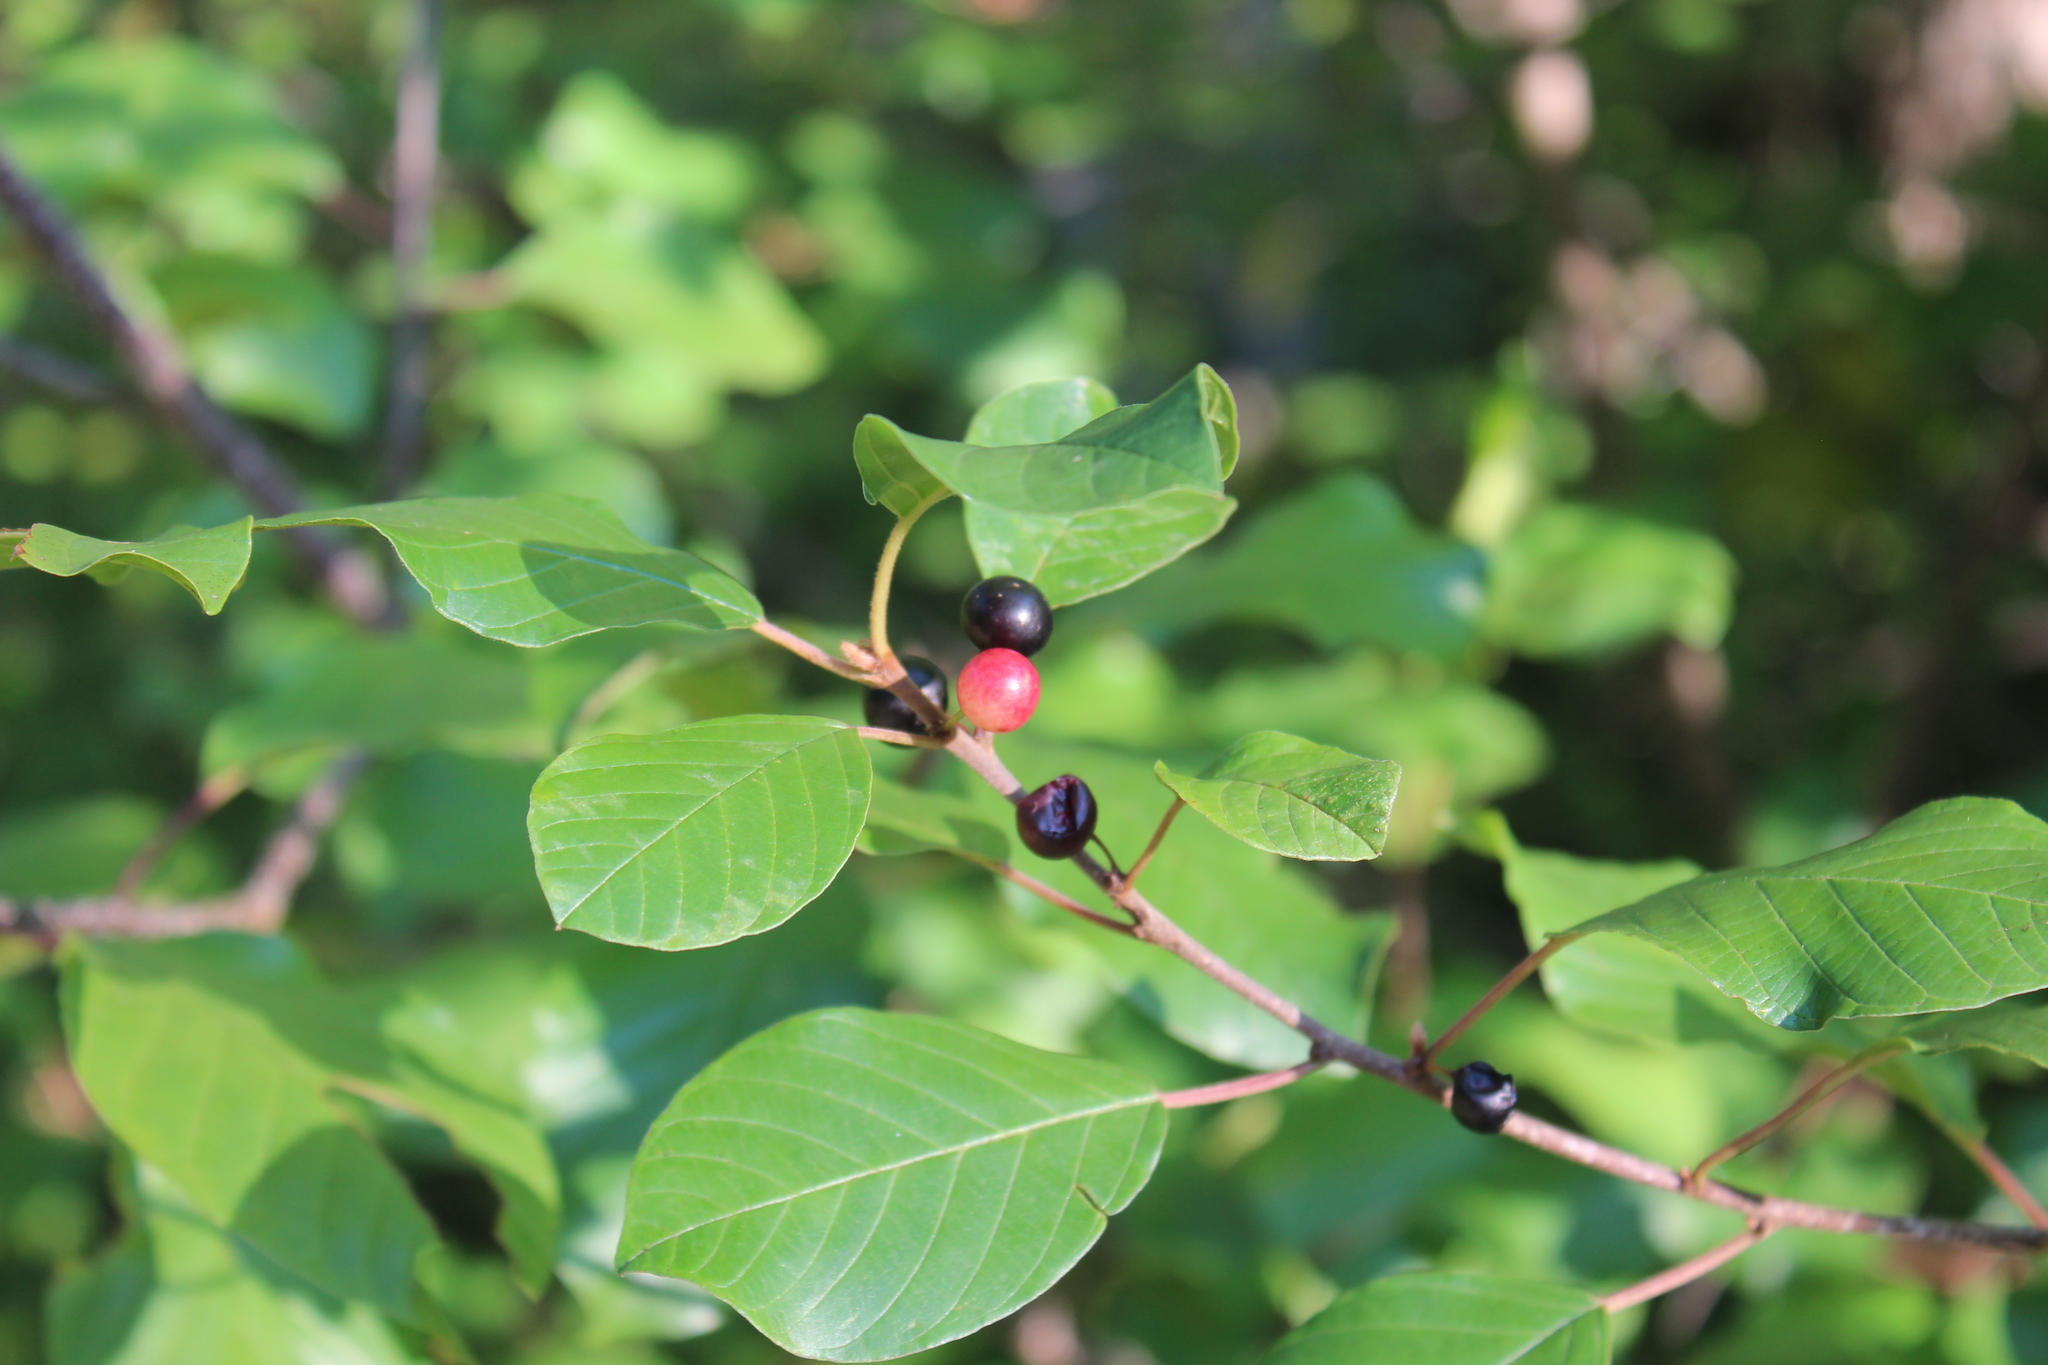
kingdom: Plantae
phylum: Tracheophyta
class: Magnoliopsida
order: Rosales
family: Rhamnaceae
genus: Frangula
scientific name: Frangula alnus
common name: Alder buckthorn
